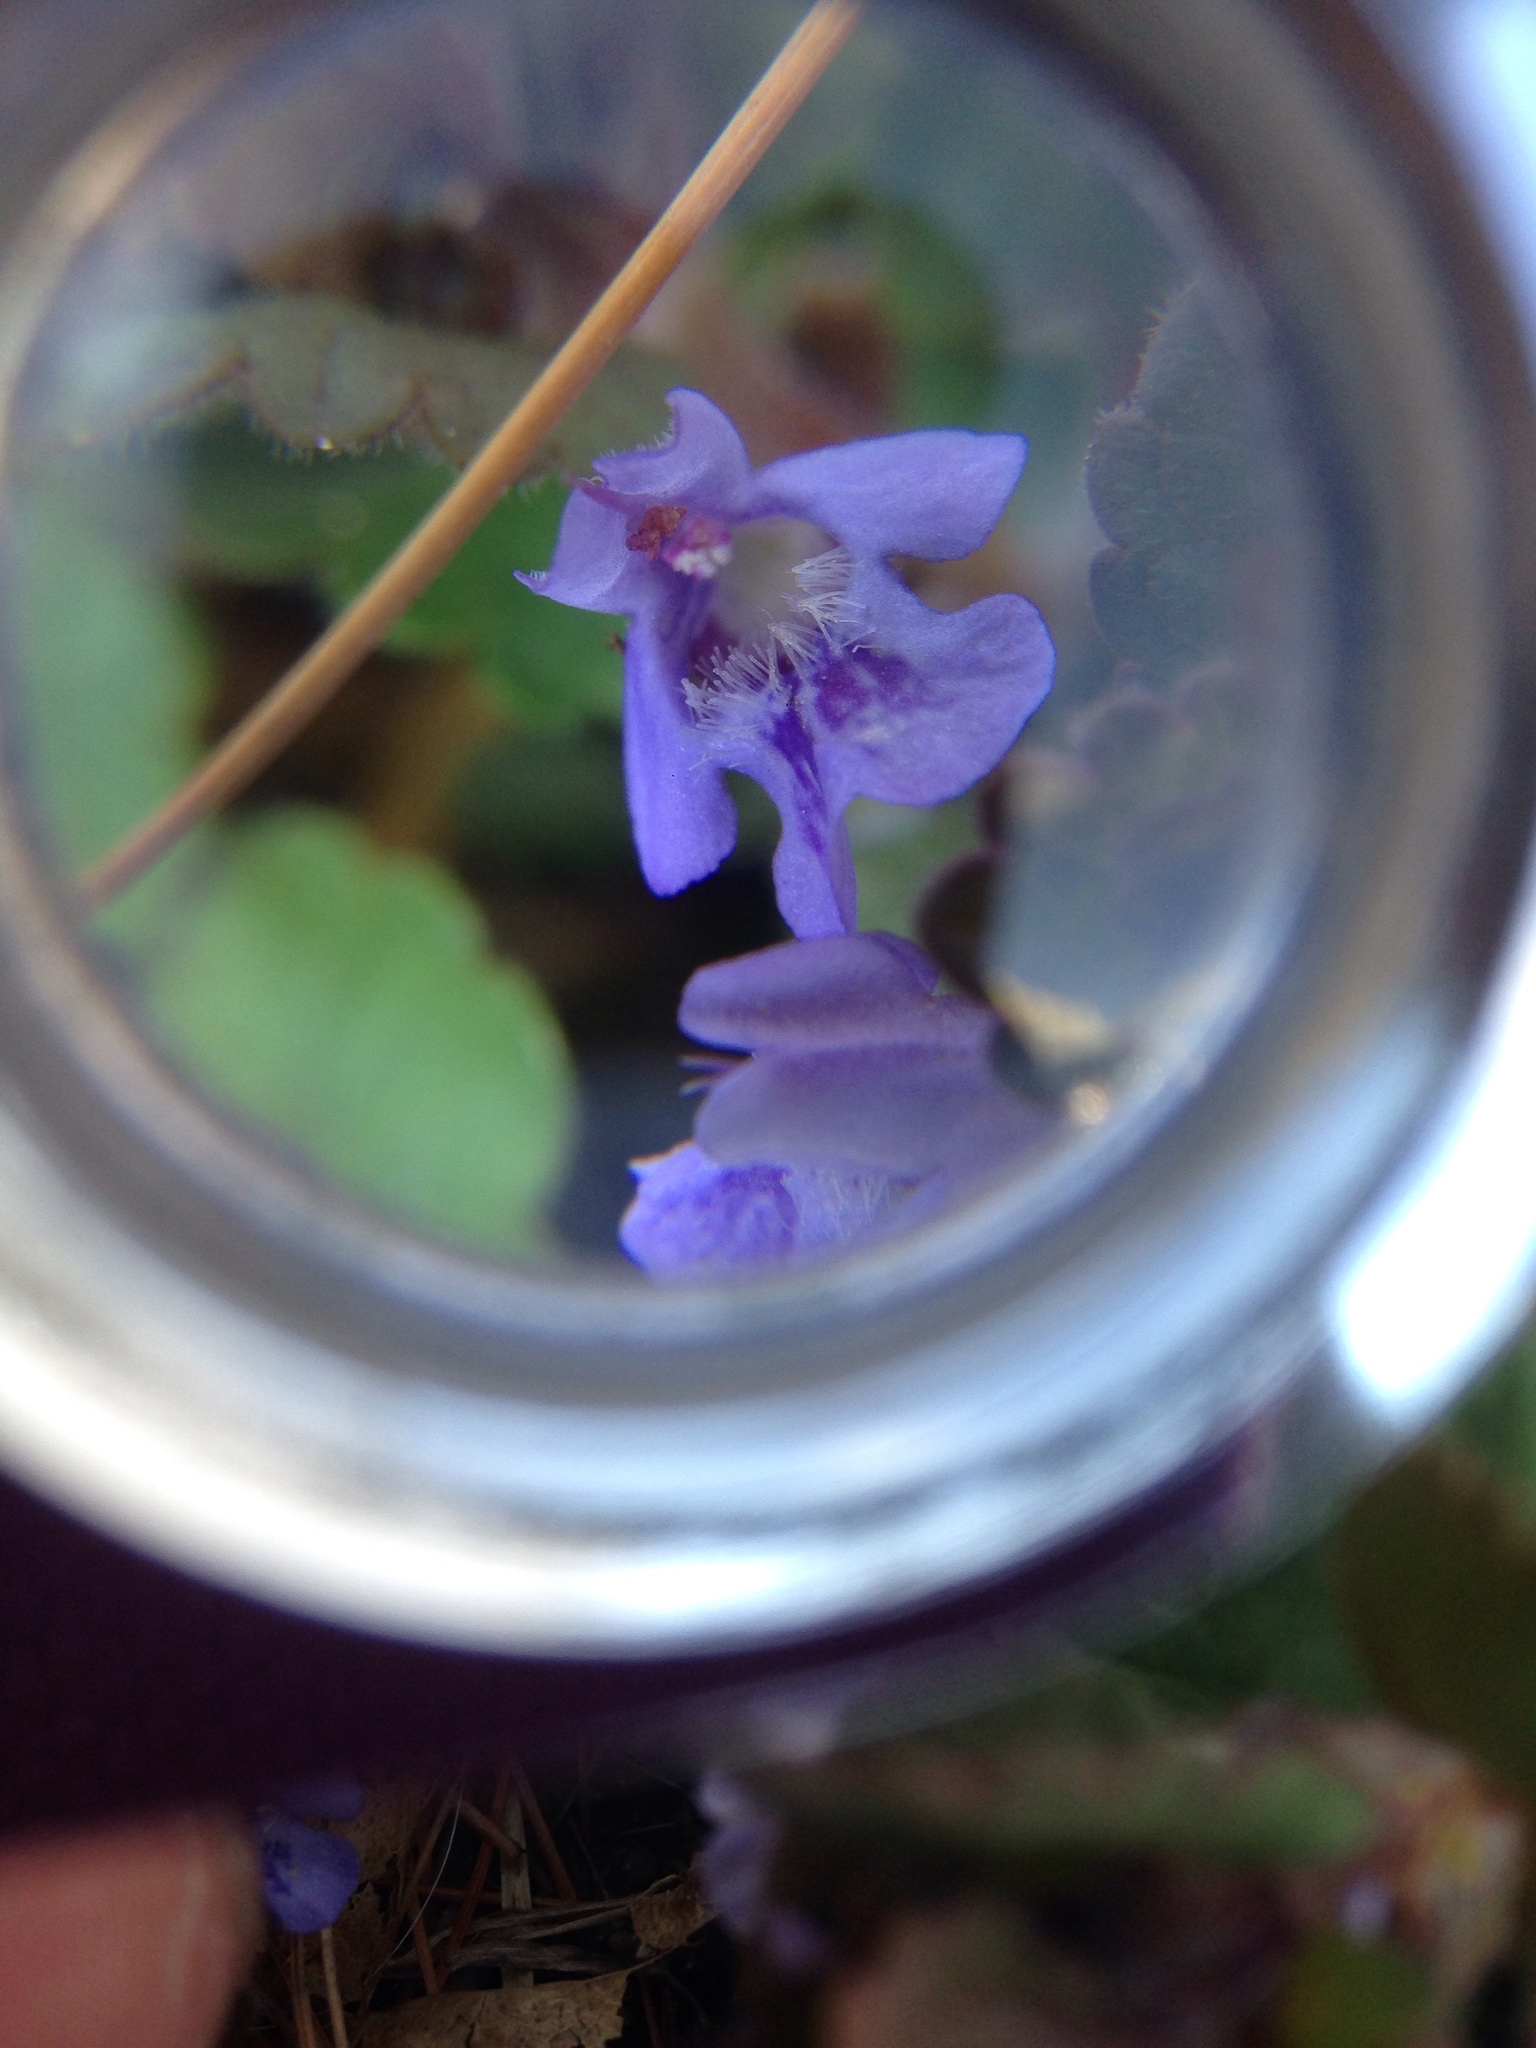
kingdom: Plantae
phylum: Tracheophyta
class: Magnoliopsida
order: Lamiales
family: Lamiaceae
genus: Glechoma
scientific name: Glechoma hederacea
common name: Ground ivy
